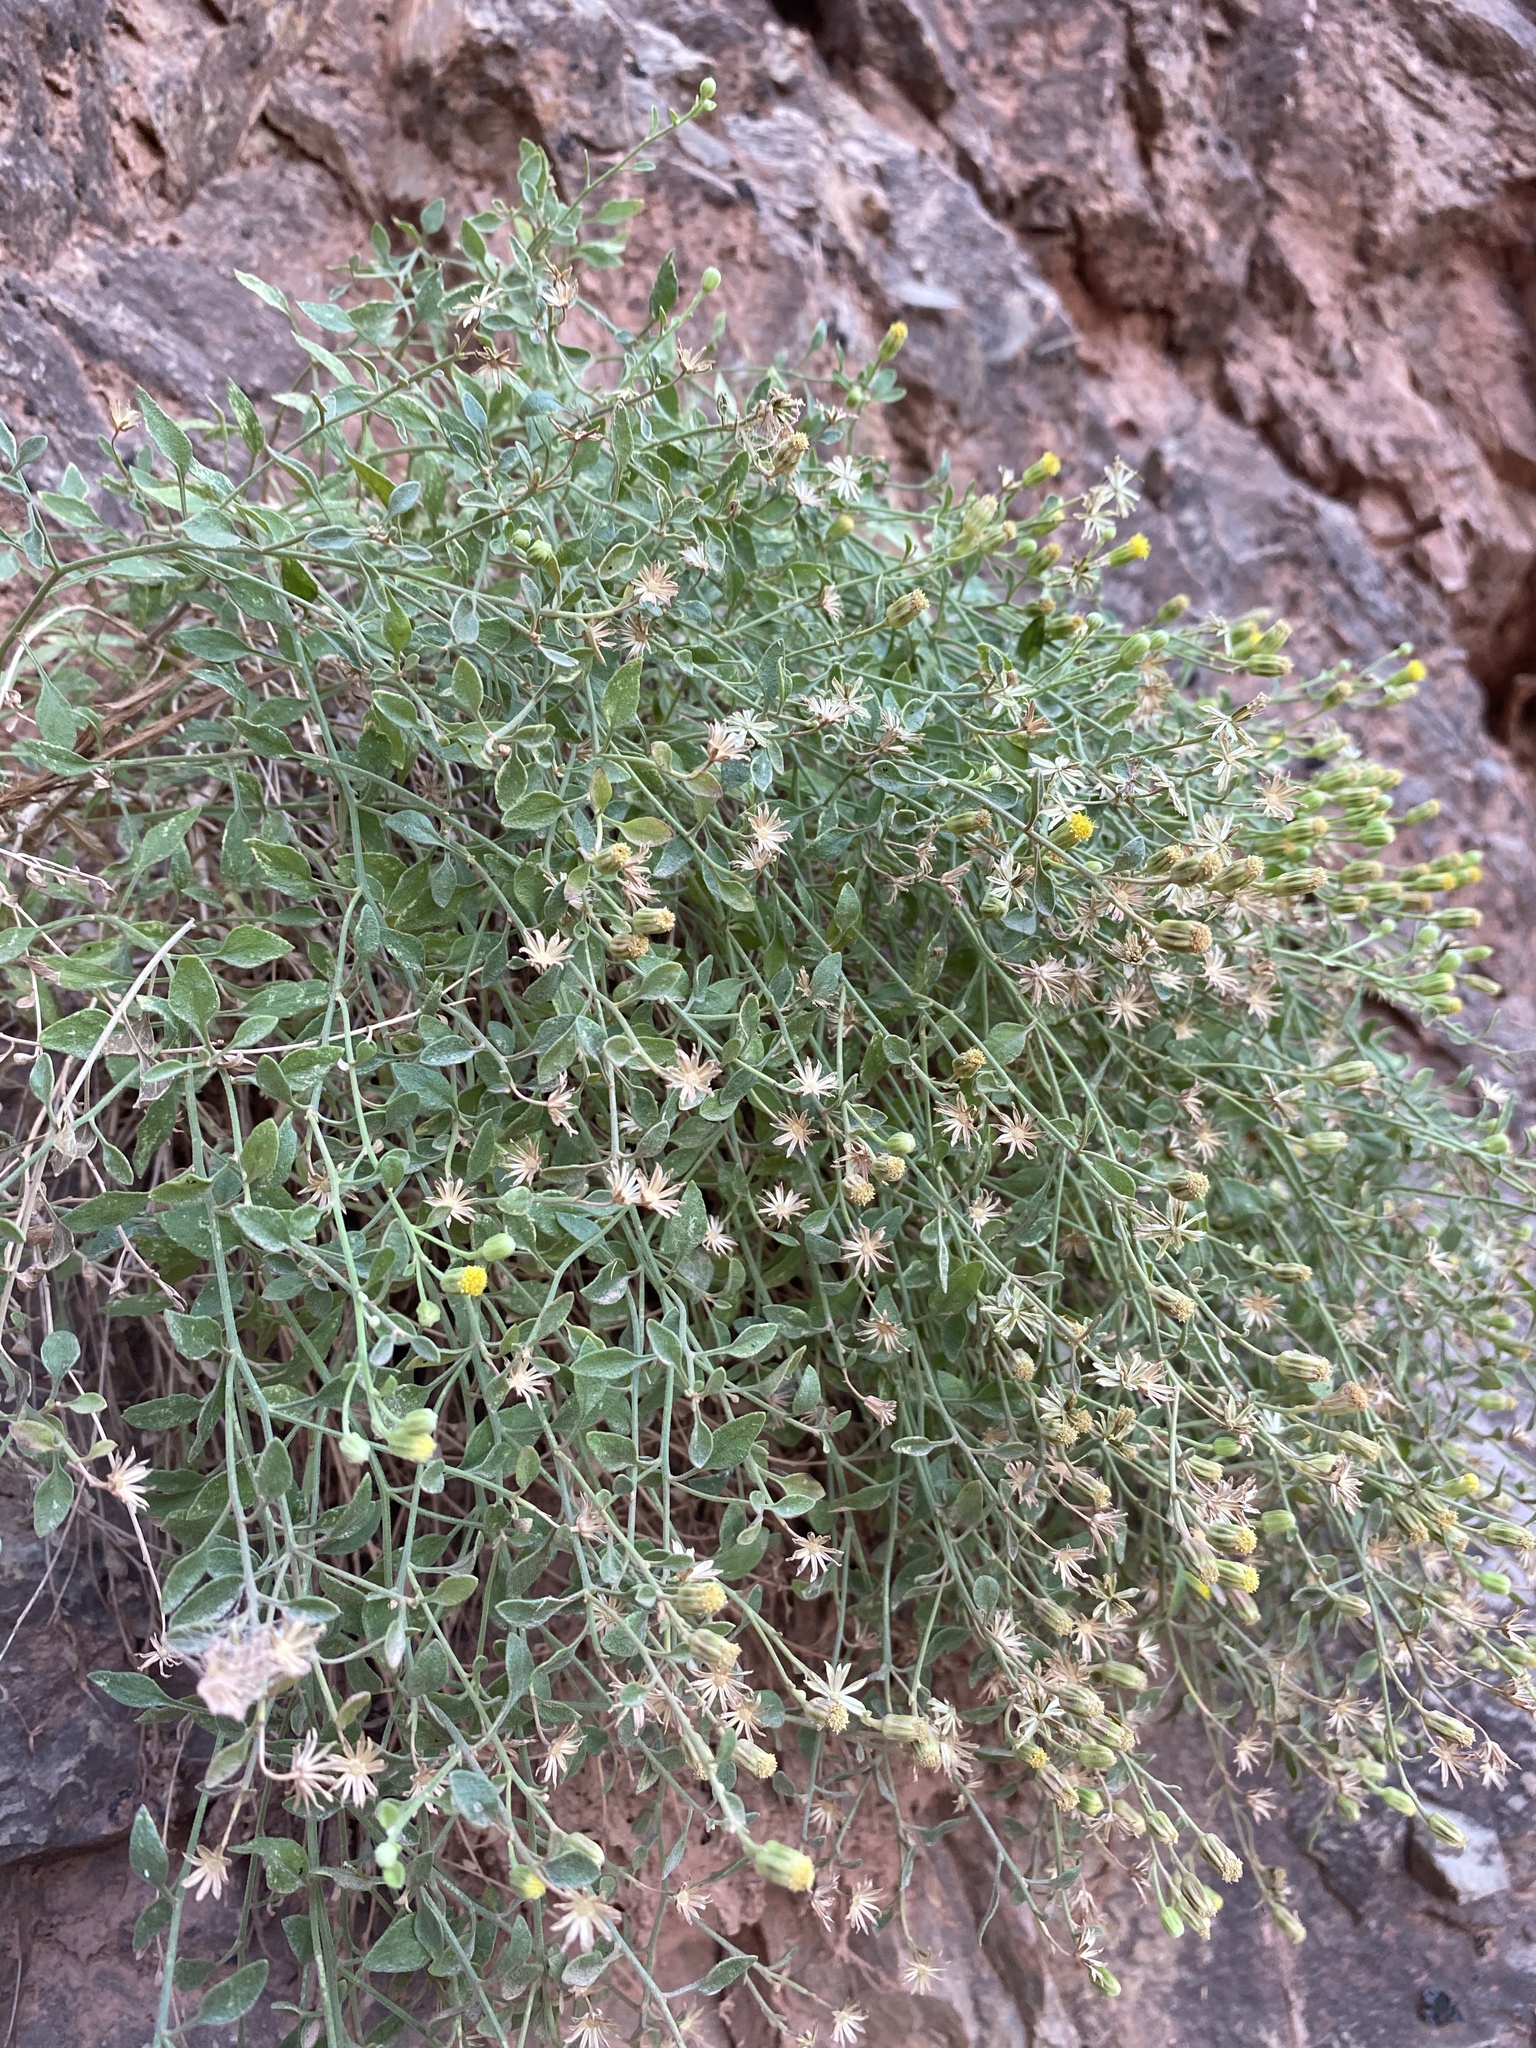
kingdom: Plantae
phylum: Tracheophyta
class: Magnoliopsida
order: Asterales
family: Asteraceae
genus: Laphamia
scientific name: Laphamia congesta
